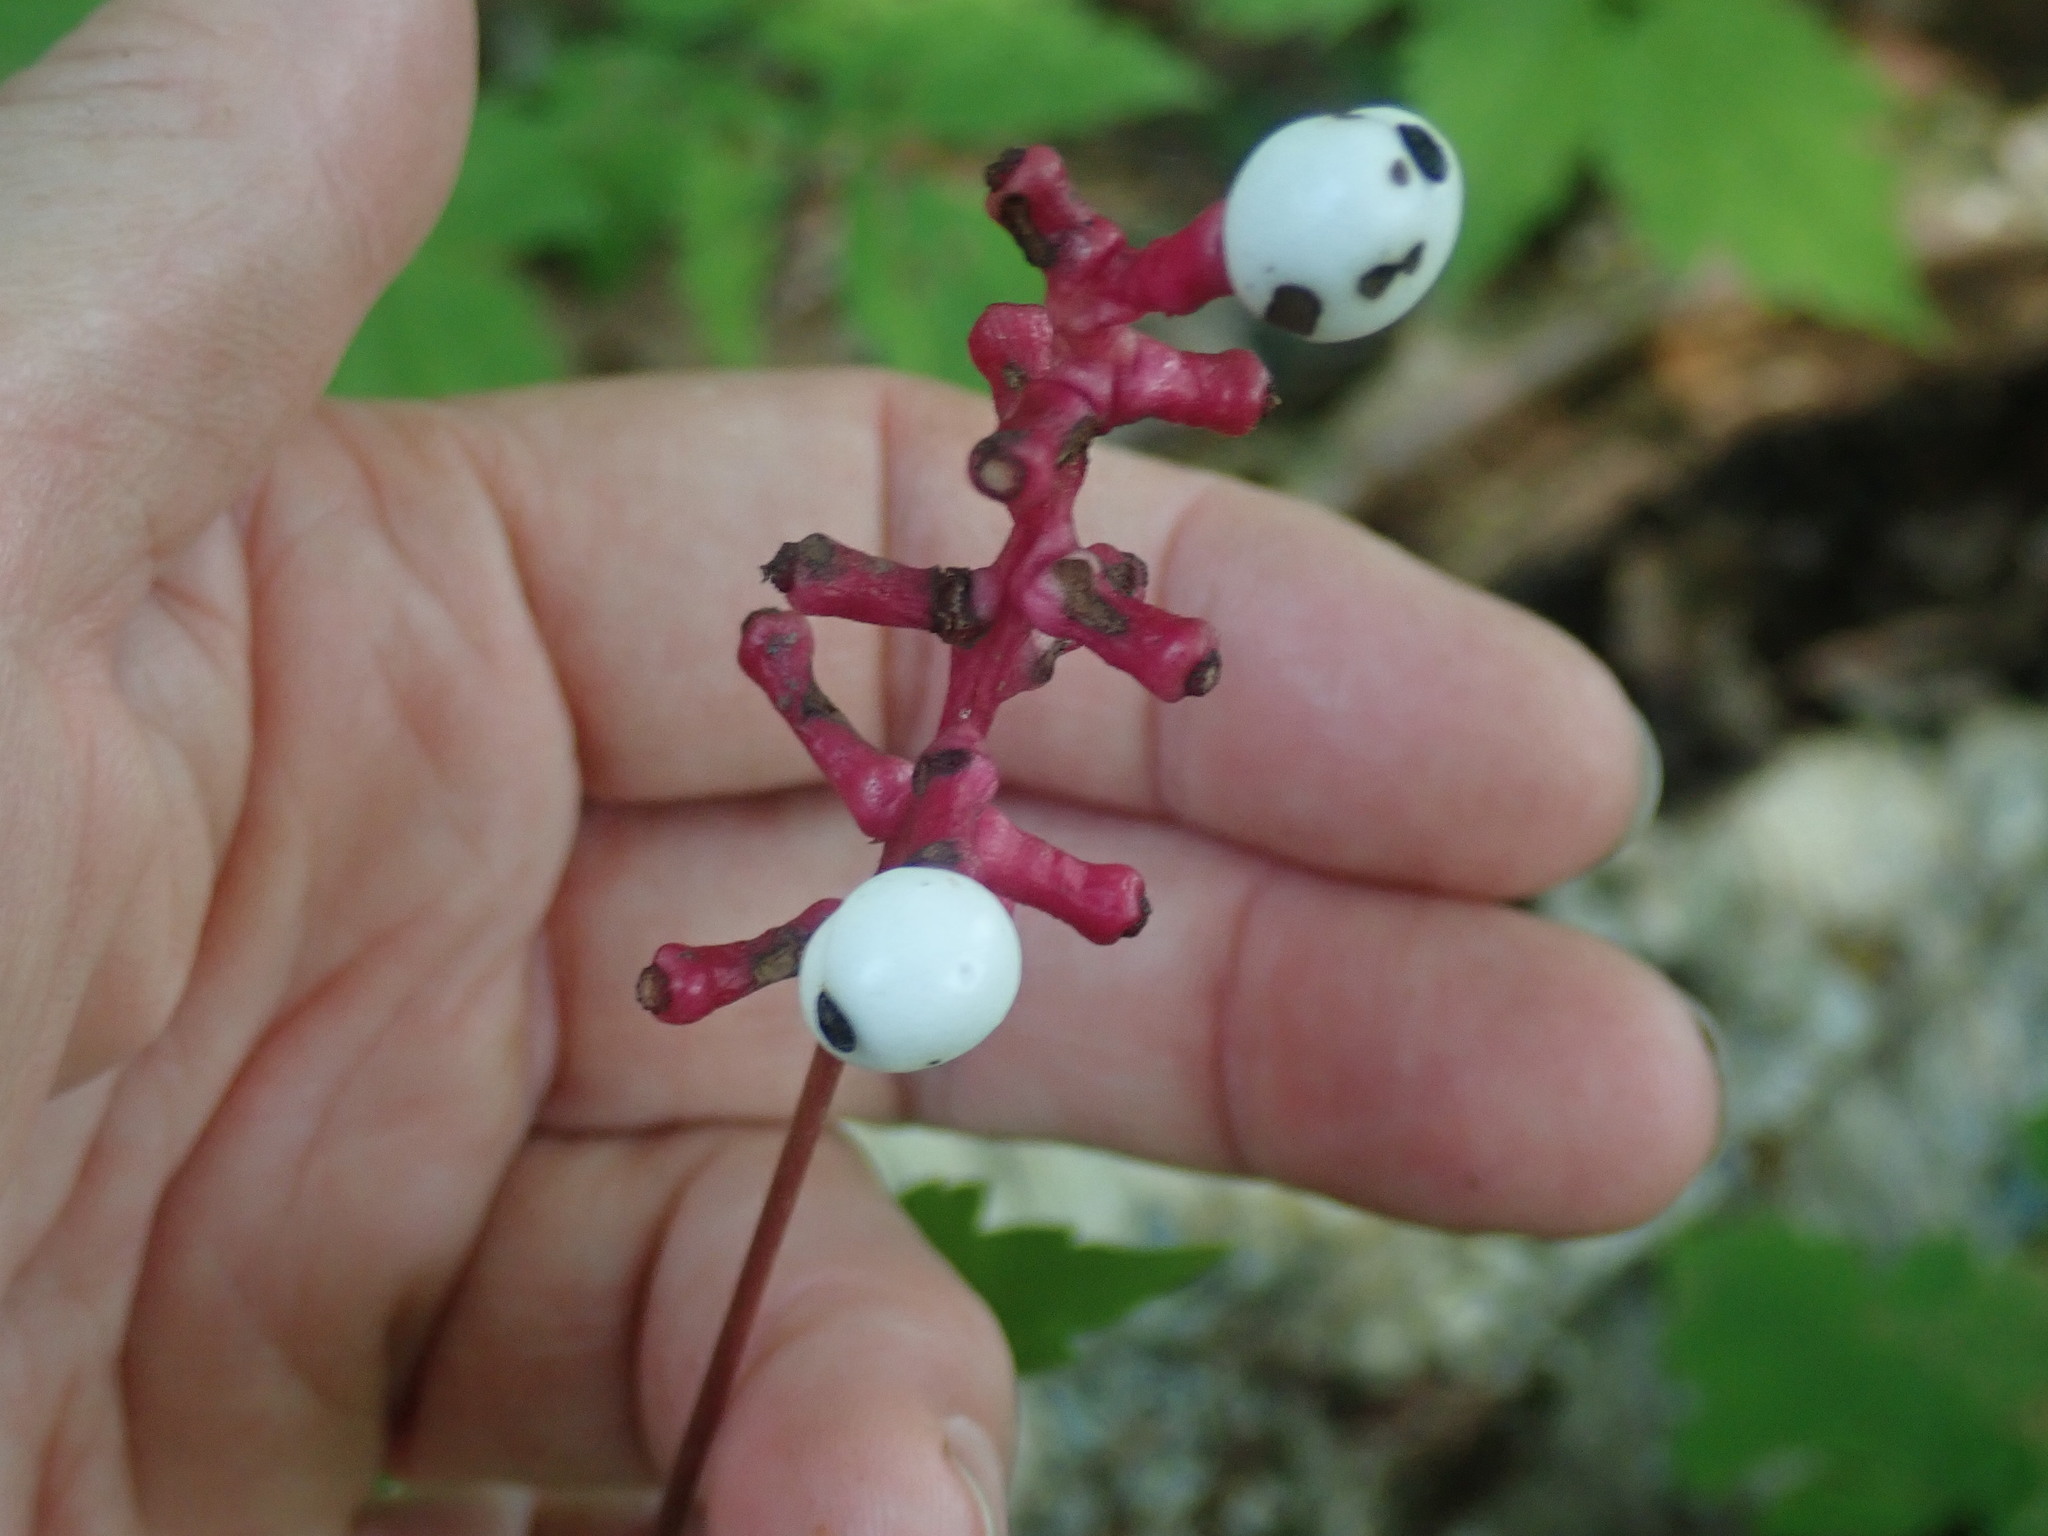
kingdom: Plantae
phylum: Tracheophyta
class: Magnoliopsida
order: Ranunculales
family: Ranunculaceae
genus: Actaea
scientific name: Actaea pachypoda
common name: Doll's-eyes
